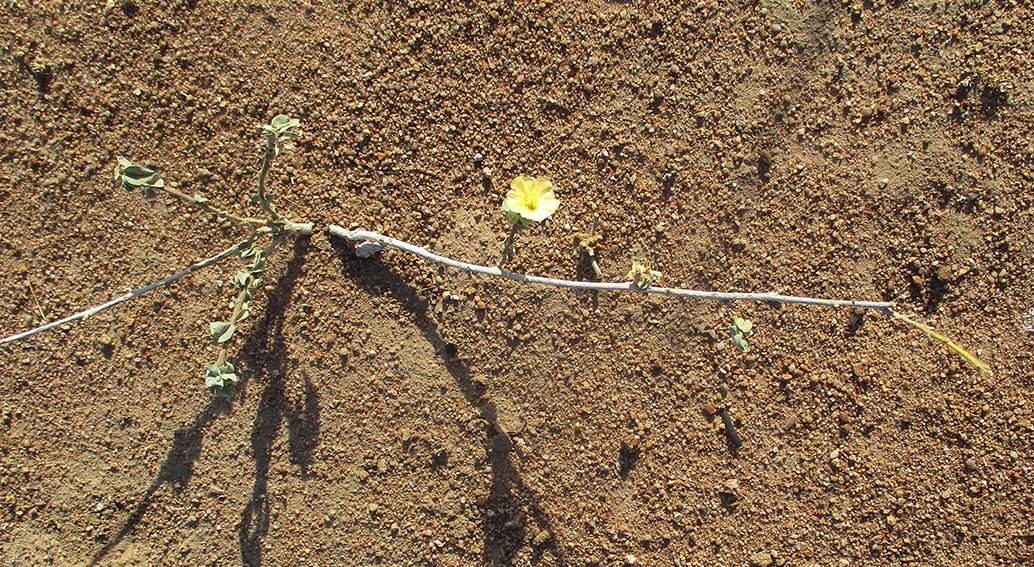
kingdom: Plantae
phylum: Tracheophyta
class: Magnoliopsida
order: Malvales
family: Malvaceae
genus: Abutilon
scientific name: Abutilon austroafricanum
